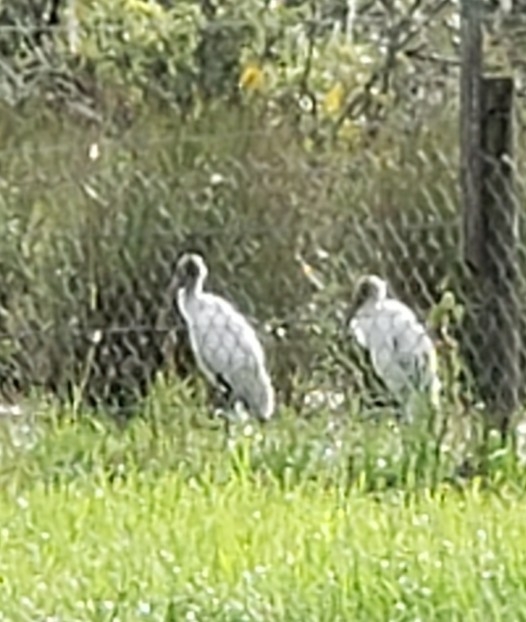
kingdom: Animalia
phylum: Chordata
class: Aves
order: Ciconiiformes
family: Ciconiidae
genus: Mycteria
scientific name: Mycteria americana
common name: Wood stork
